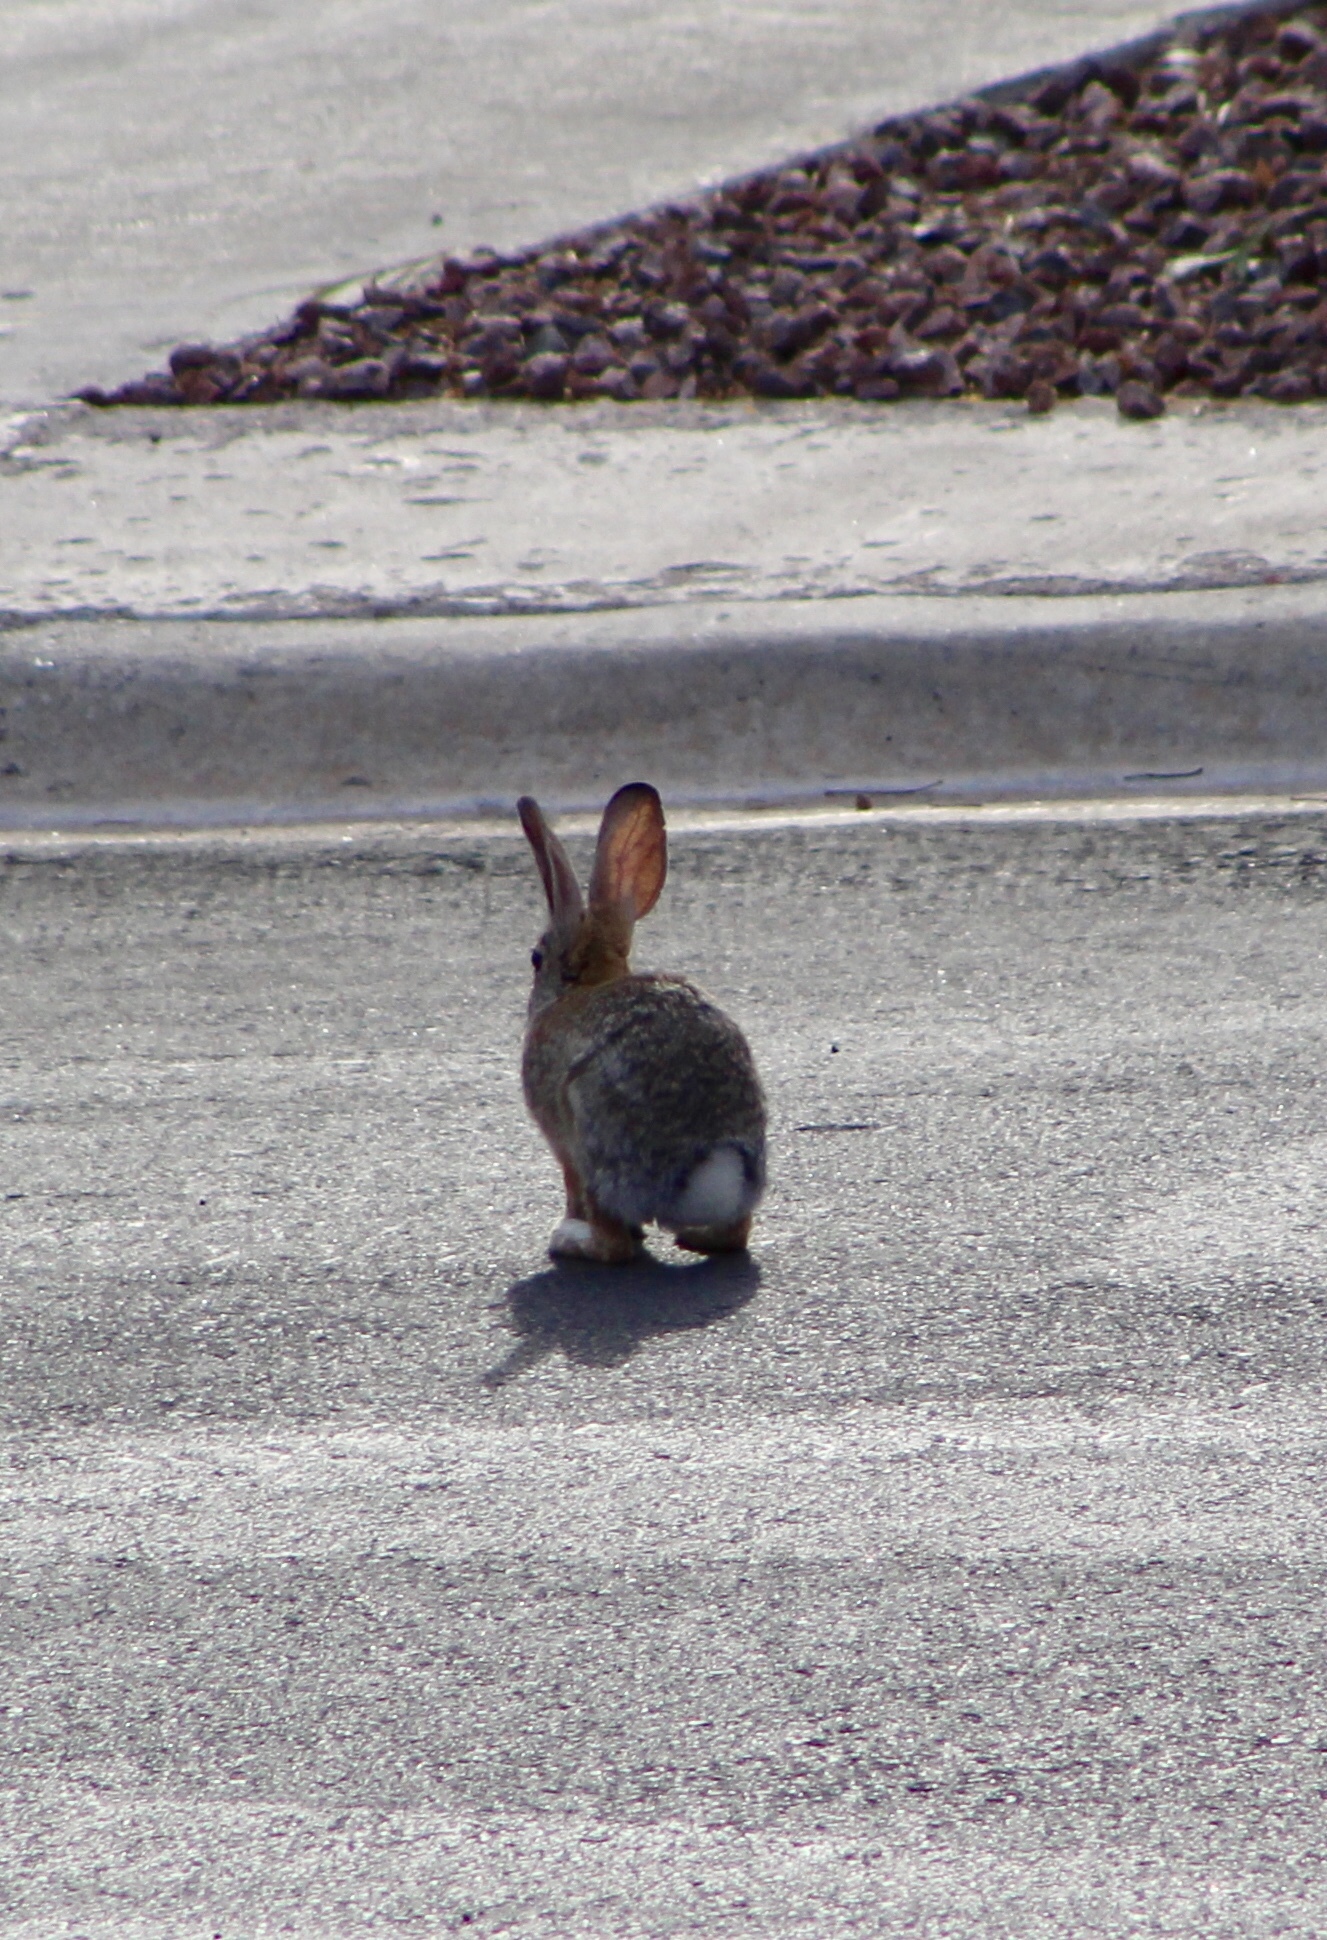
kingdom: Animalia
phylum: Chordata
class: Mammalia
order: Lagomorpha
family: Leporidae
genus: Sylvilagus
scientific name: Sylvilagus audubonii
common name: Desert cottontail
